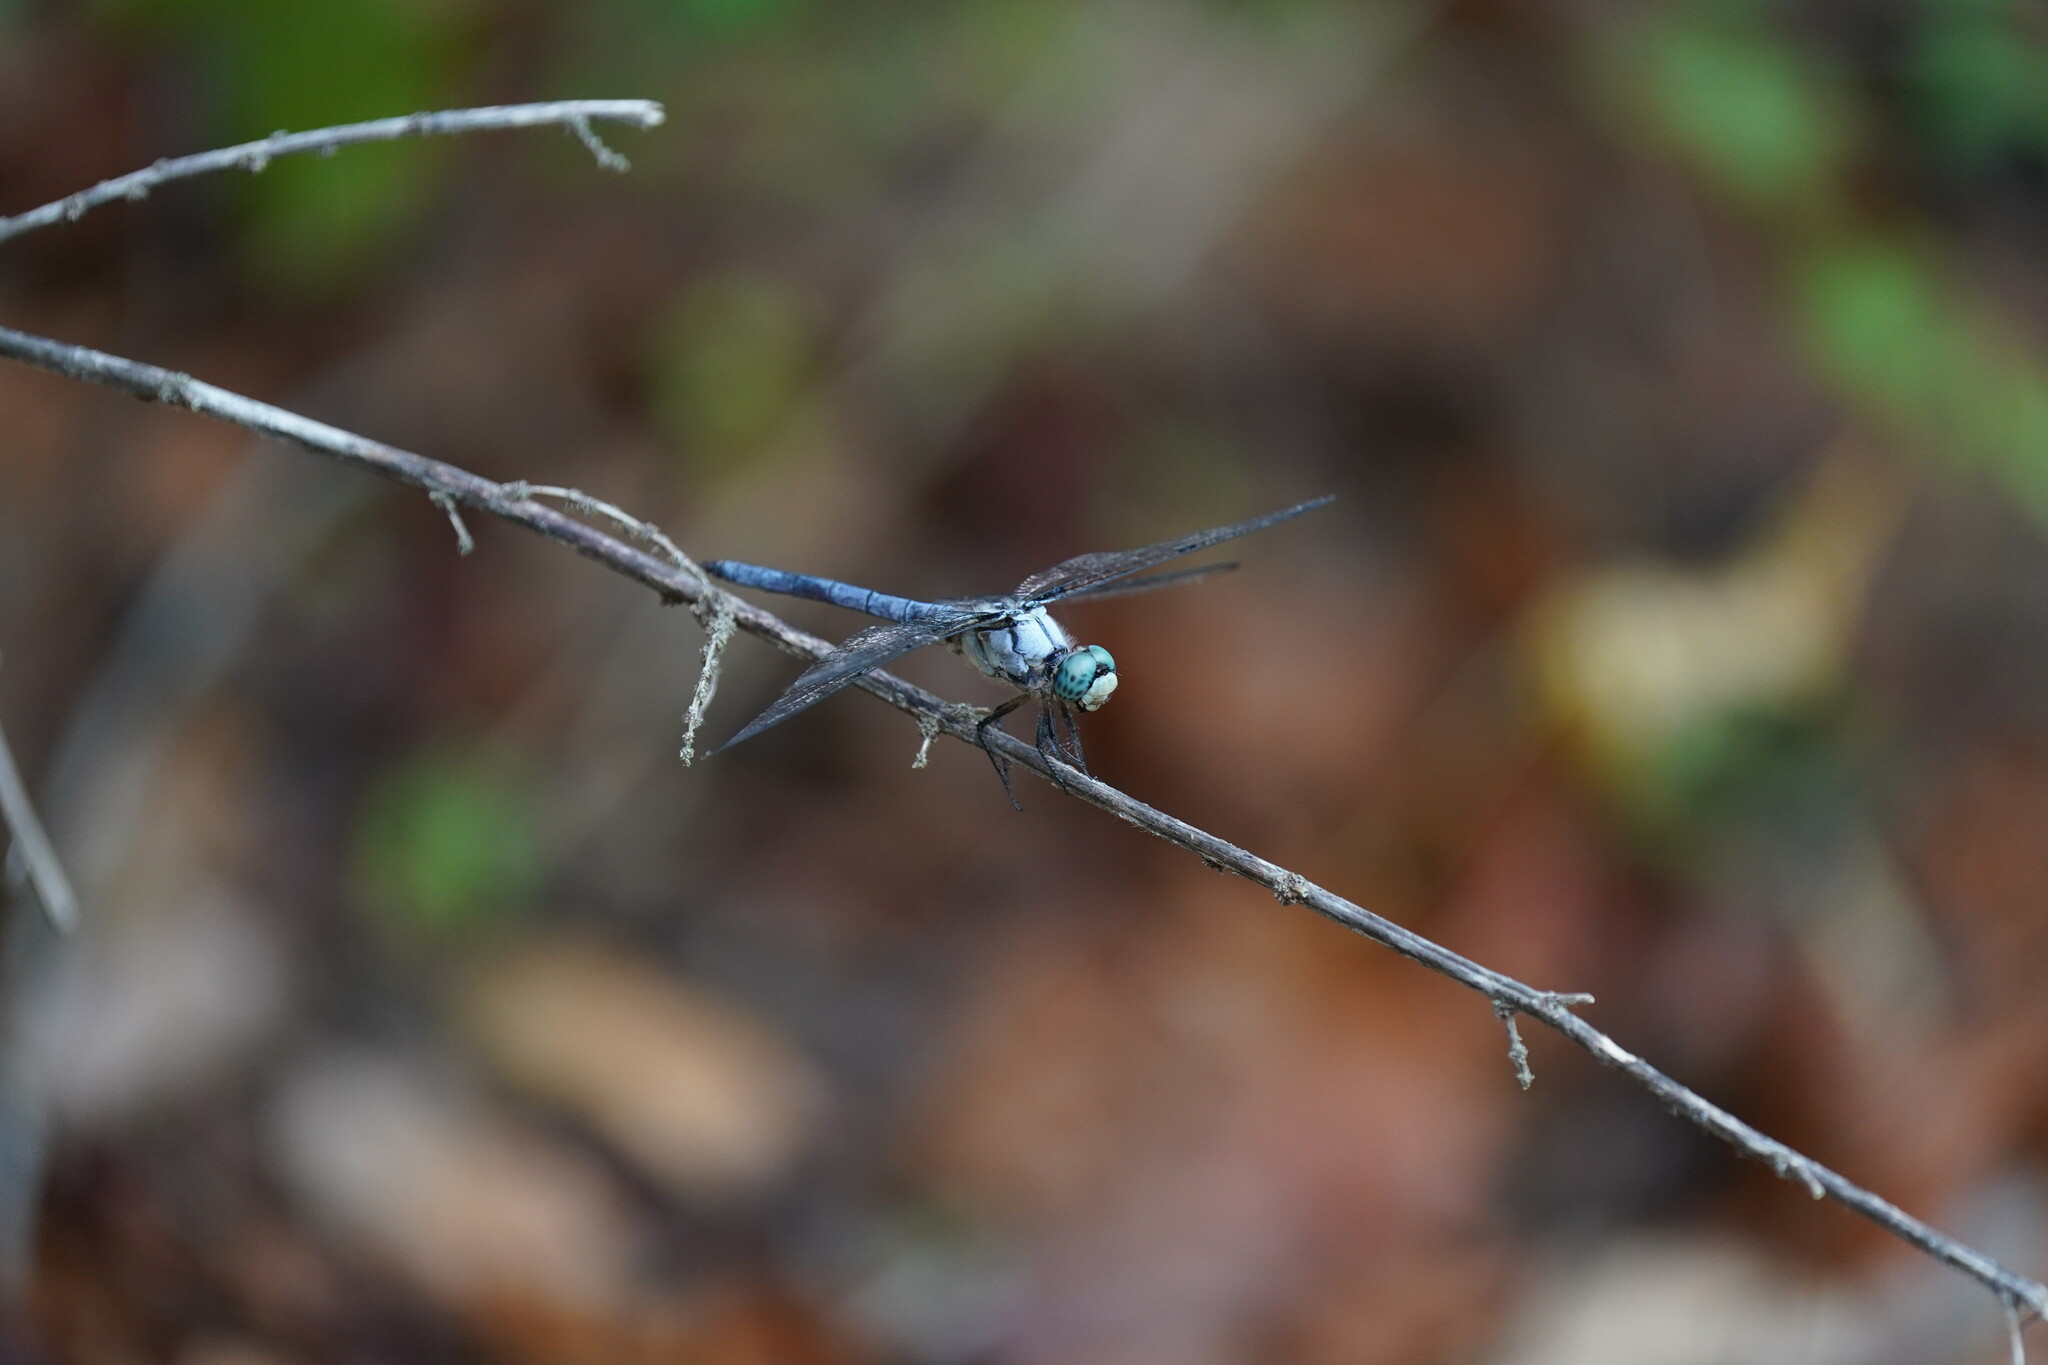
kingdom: Animalia
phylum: Arthropoda
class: Insecta
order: Odonata
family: Libellulidae
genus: Libellula
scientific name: Libellula vibrans
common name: Great blue skimmer
